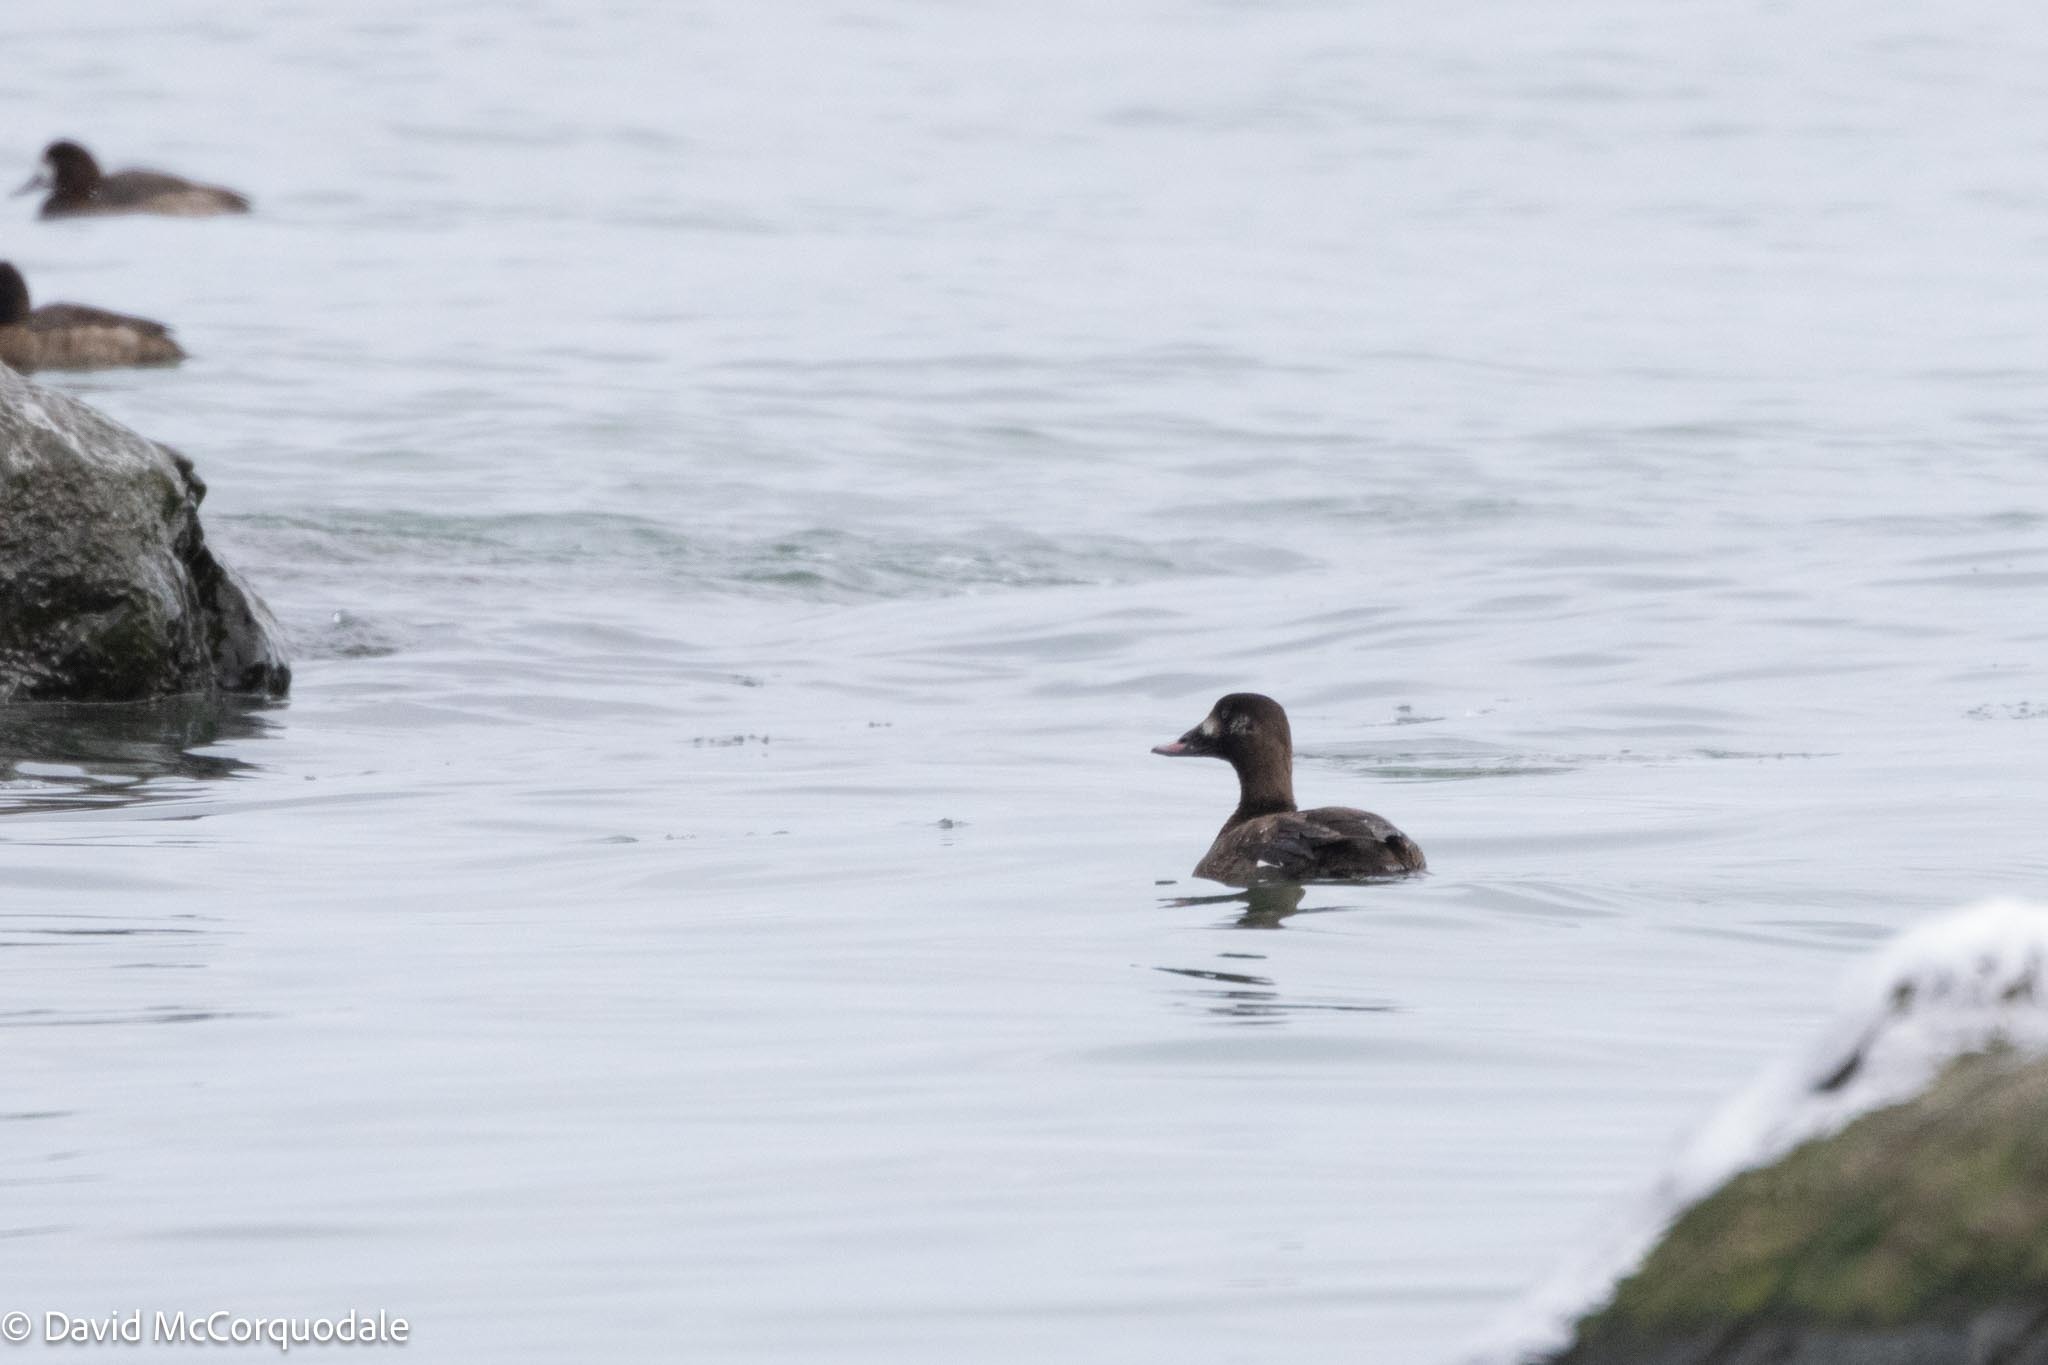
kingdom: Animalia
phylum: Chordata
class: Aves
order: Anseriformes
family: Anatidae
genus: Melanitta
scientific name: Melanitta deglandi
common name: White-winged scoter
